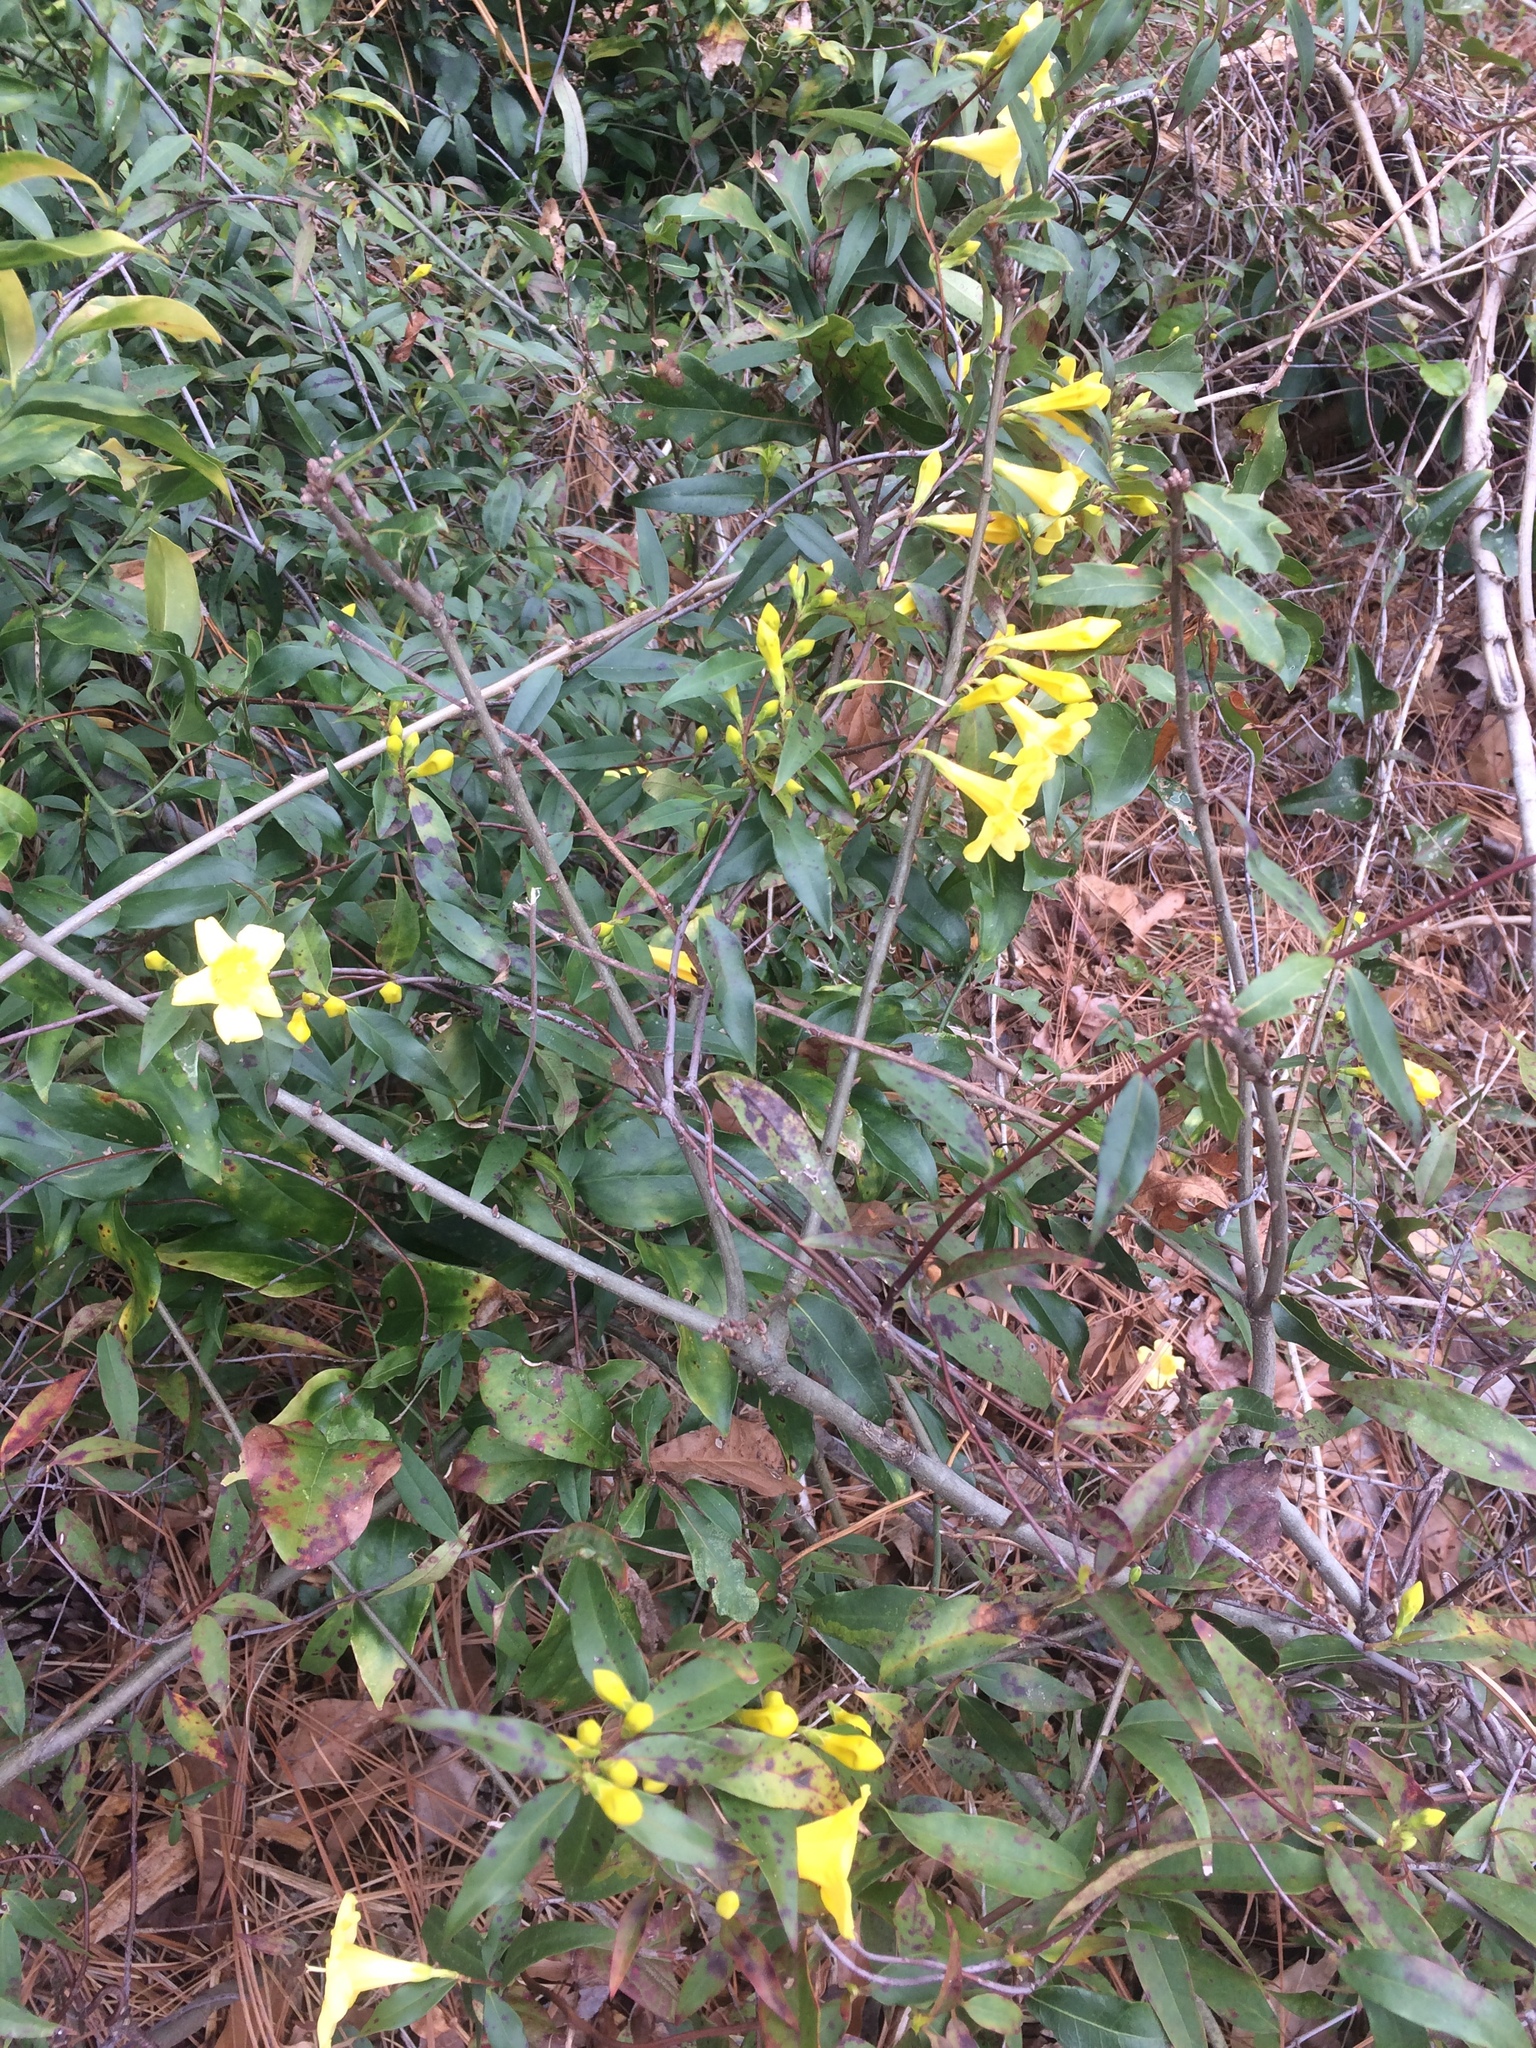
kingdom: Plantae
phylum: Tracheophyta
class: Magnoliopsida
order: Gentianales
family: Gelsemiaceae
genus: Gelsemium
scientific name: Gelsemium sempervirens
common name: Carolina-jasmine
